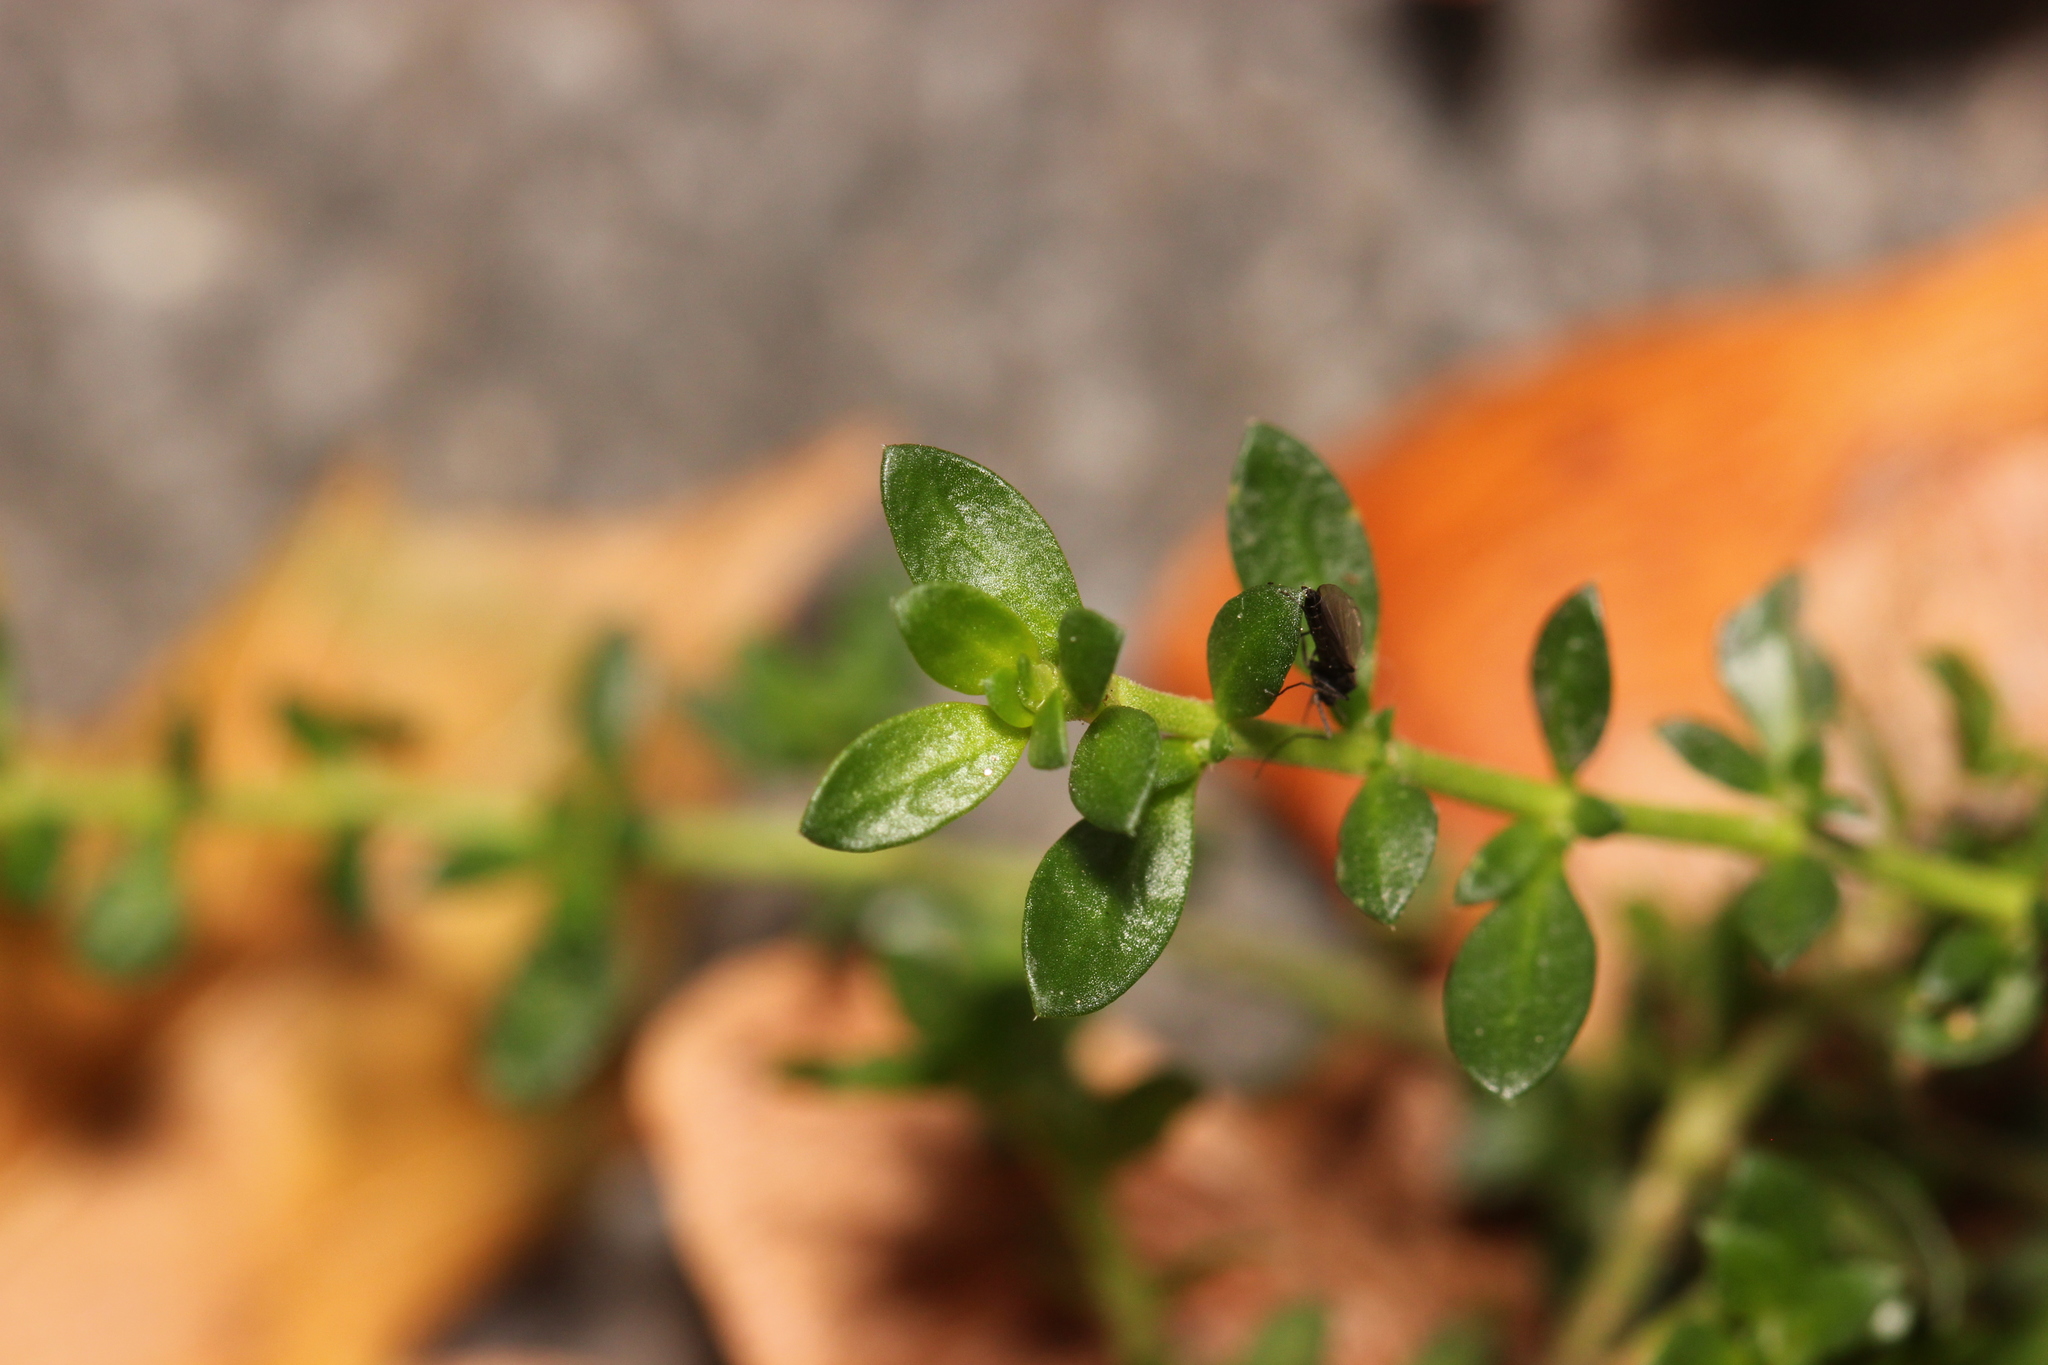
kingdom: Plantae
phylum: Tracheophyta
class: Magnoliopsida
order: Caryophyllales
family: Caryophyllaceae
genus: Herniaria
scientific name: Herniaria glabra
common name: Smooth rupturewort
